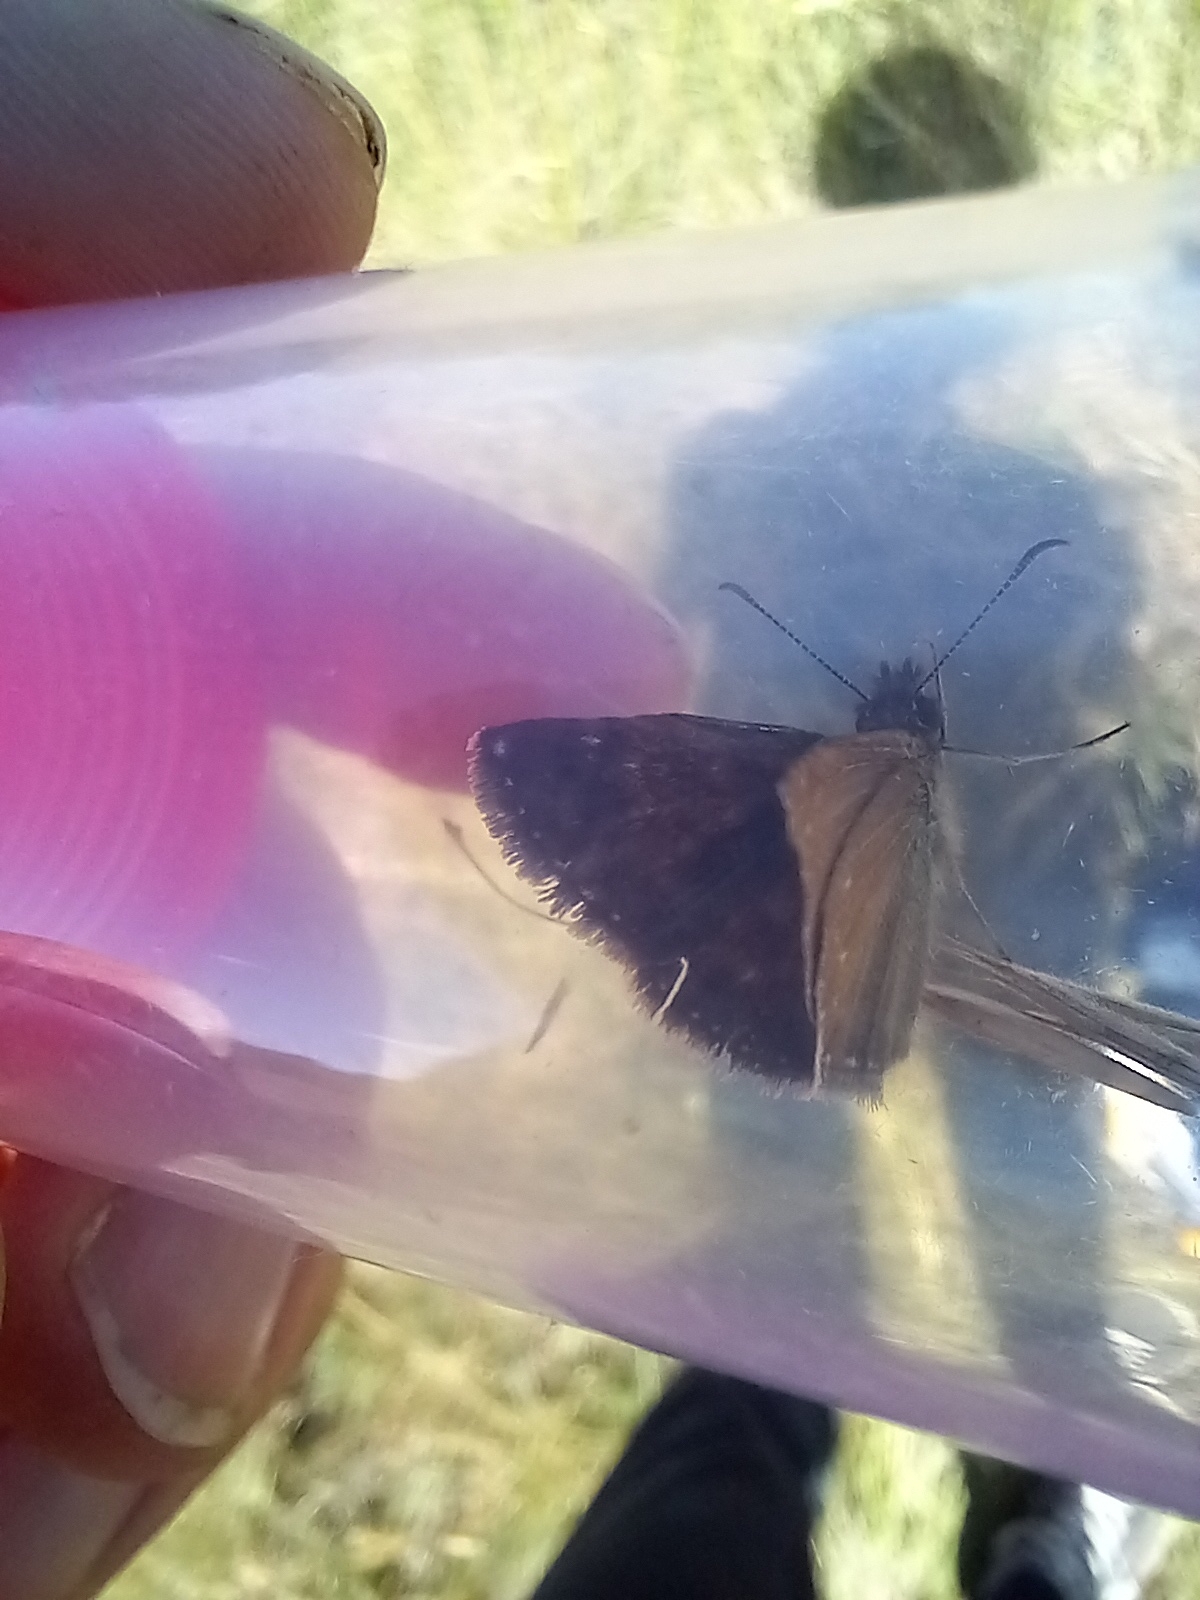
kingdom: Animalia
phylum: Arthropoda
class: Insecta
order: Lepidoptera
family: Hesperiidae
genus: Erynnis
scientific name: Erynnis tages
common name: Dingy skipper
